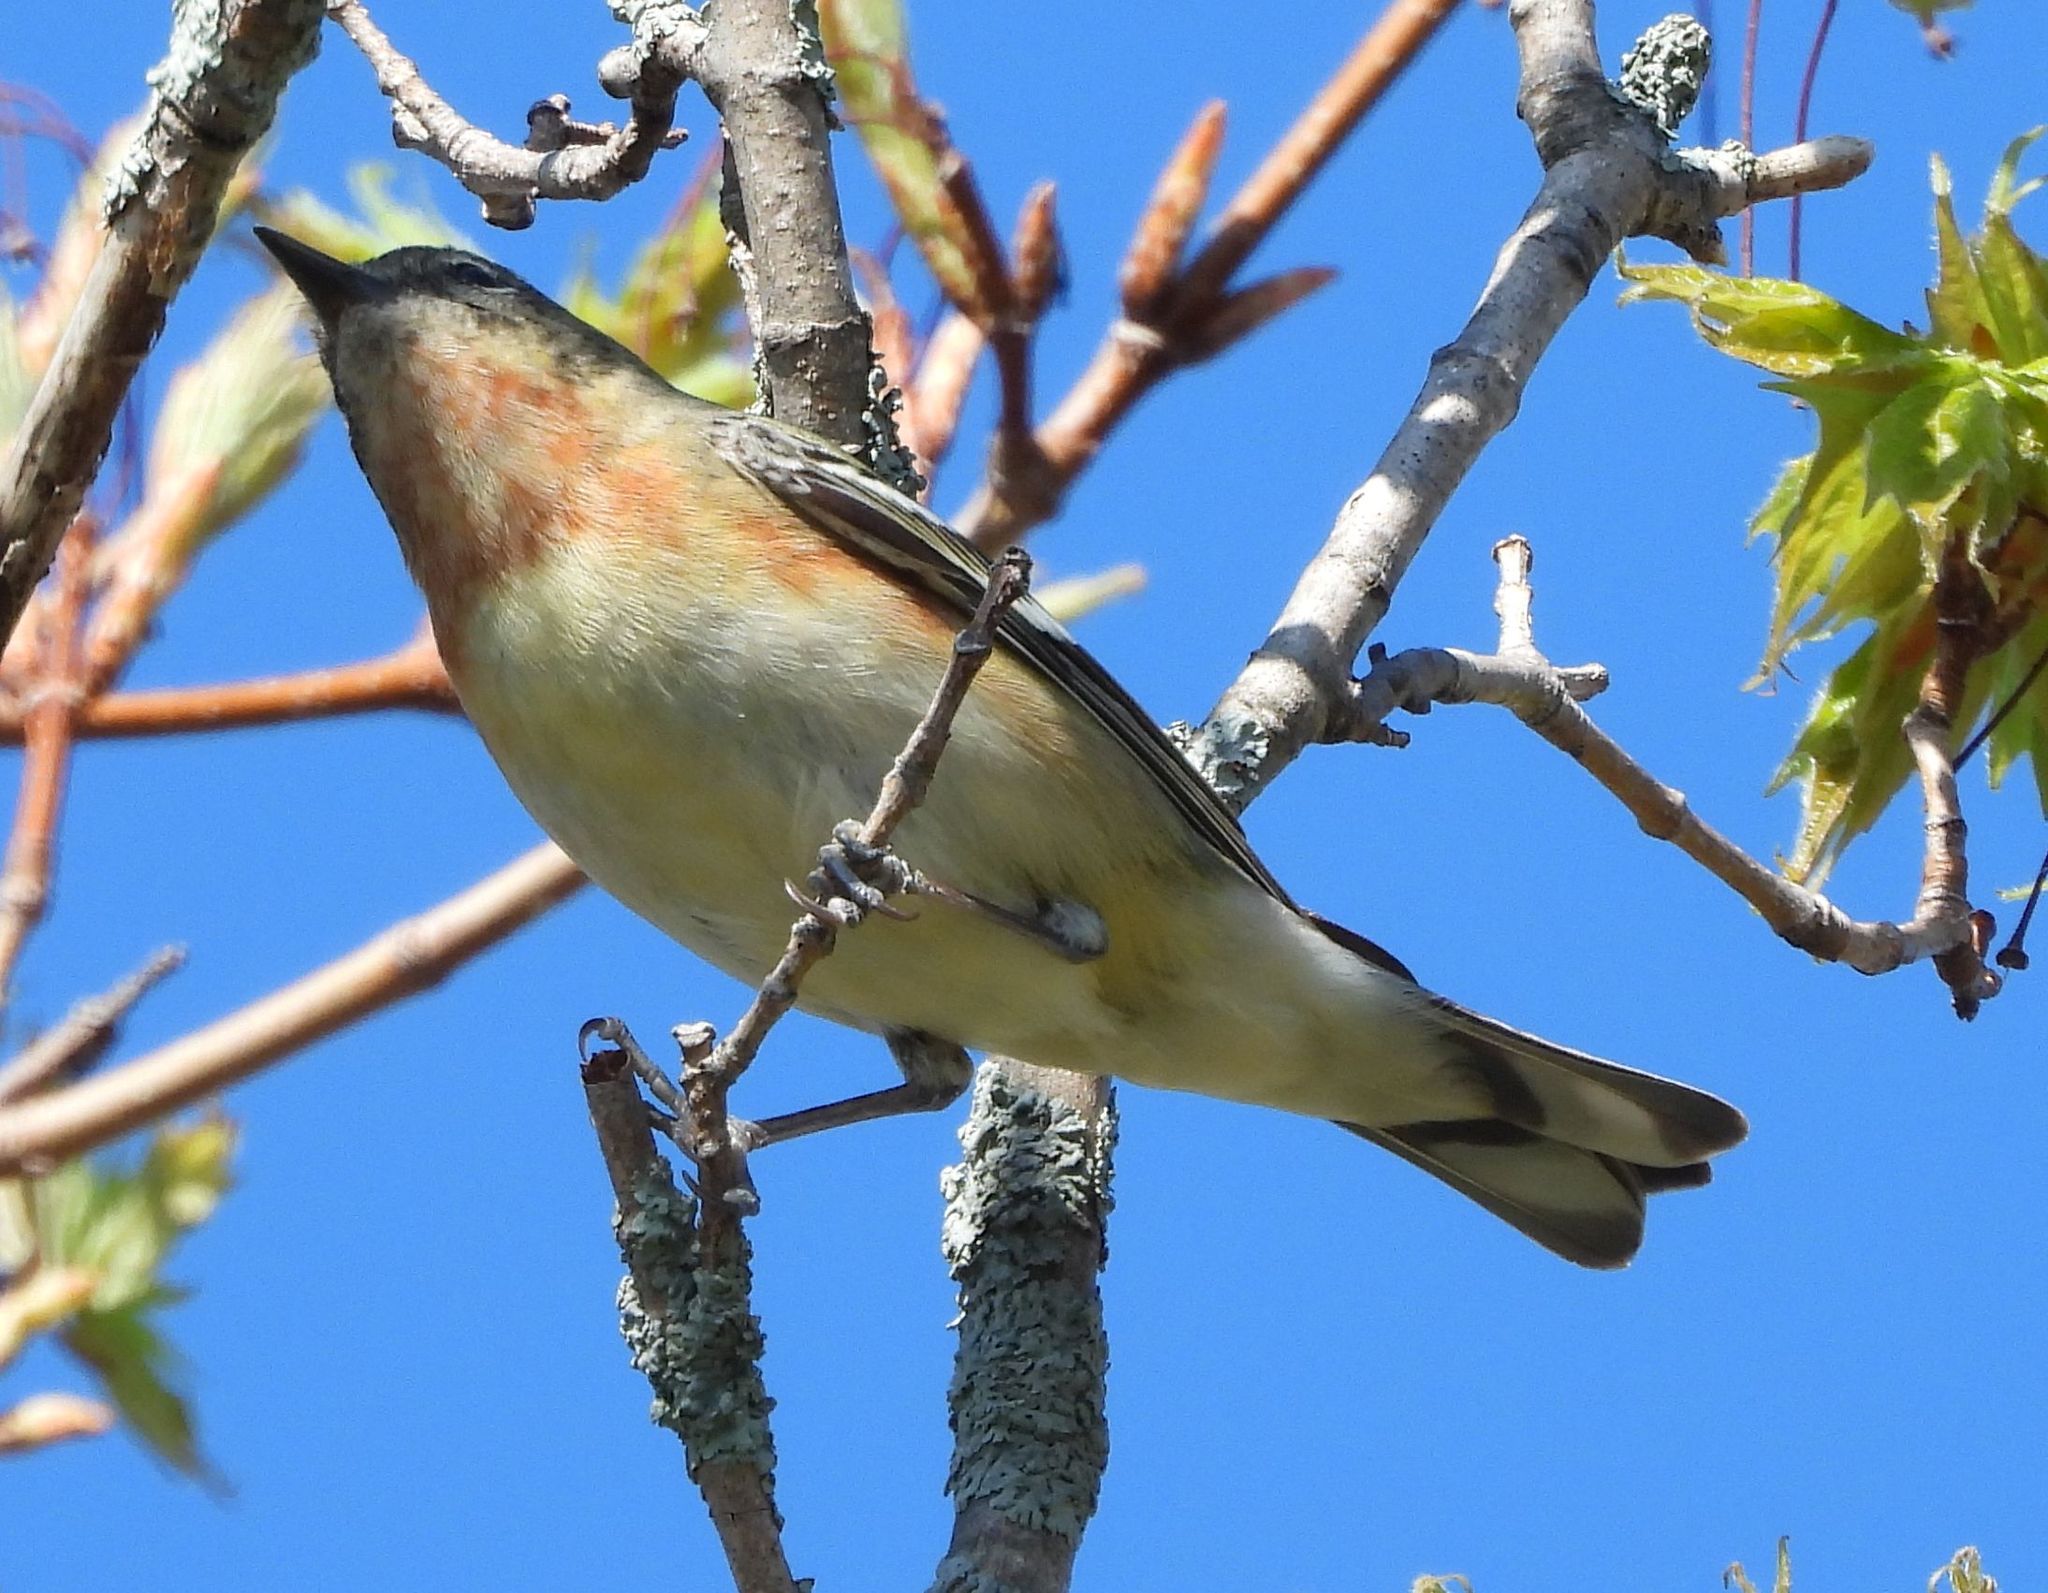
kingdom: Animalia
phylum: Chordata
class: Aves
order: Passeriformes
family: Parulidae
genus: Setophaga
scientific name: Setophaga castanea
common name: Bay-breasted warbler
